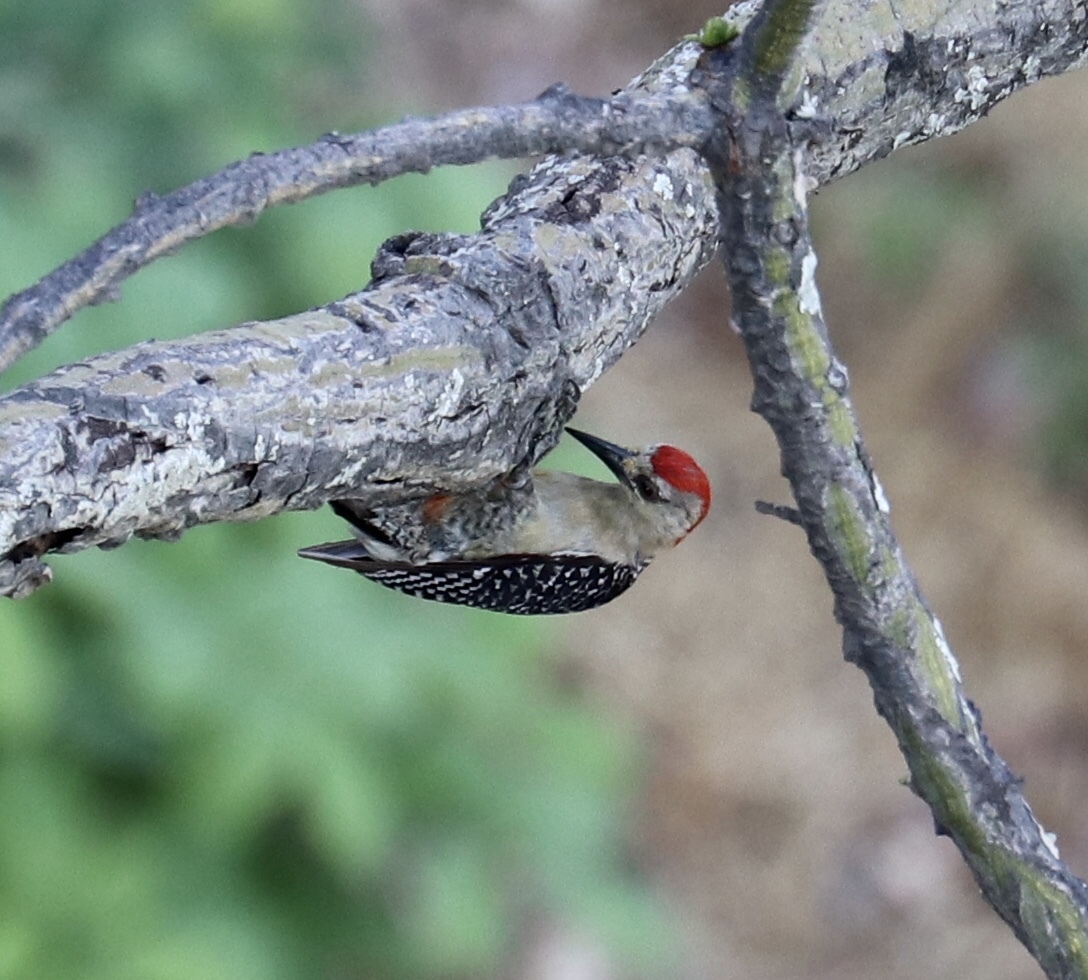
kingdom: Animalia
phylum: Chordata
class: Aves
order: Piciformes
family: Picidae
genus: Melanerpes
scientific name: Melanerpes rubricapillus
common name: Red-crowned woodpecker
